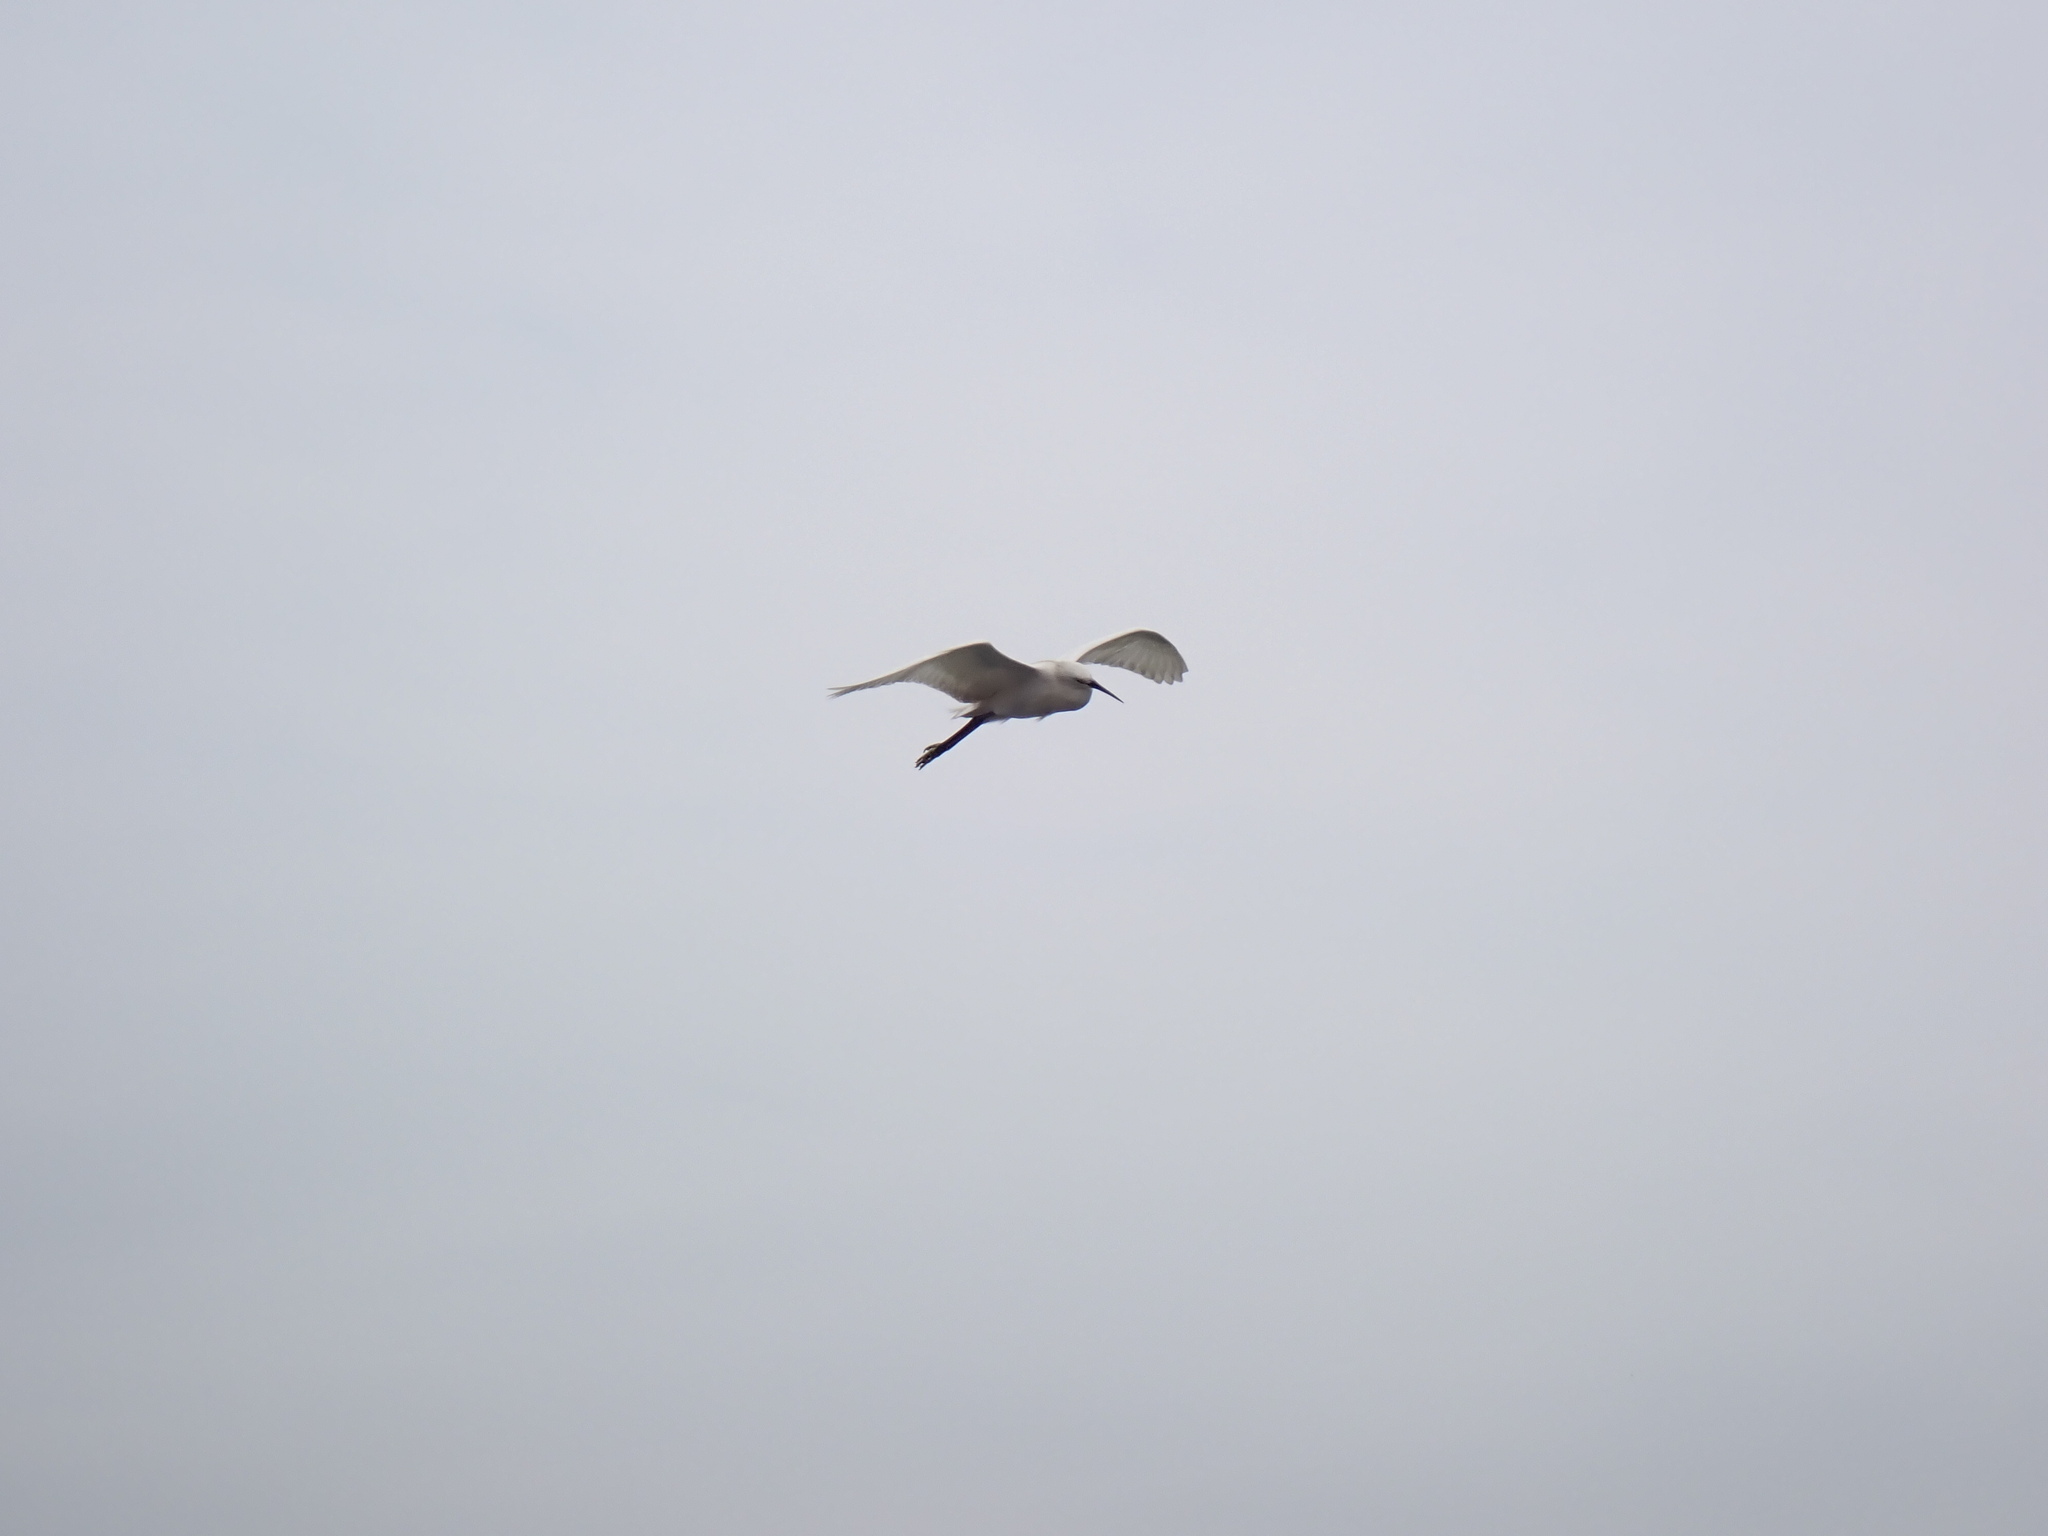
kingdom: Animalia
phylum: Chordata
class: Aves
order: Pelecaniformes
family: Ardeidae
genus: Egretta
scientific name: Egretta garzetta
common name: Little egret
